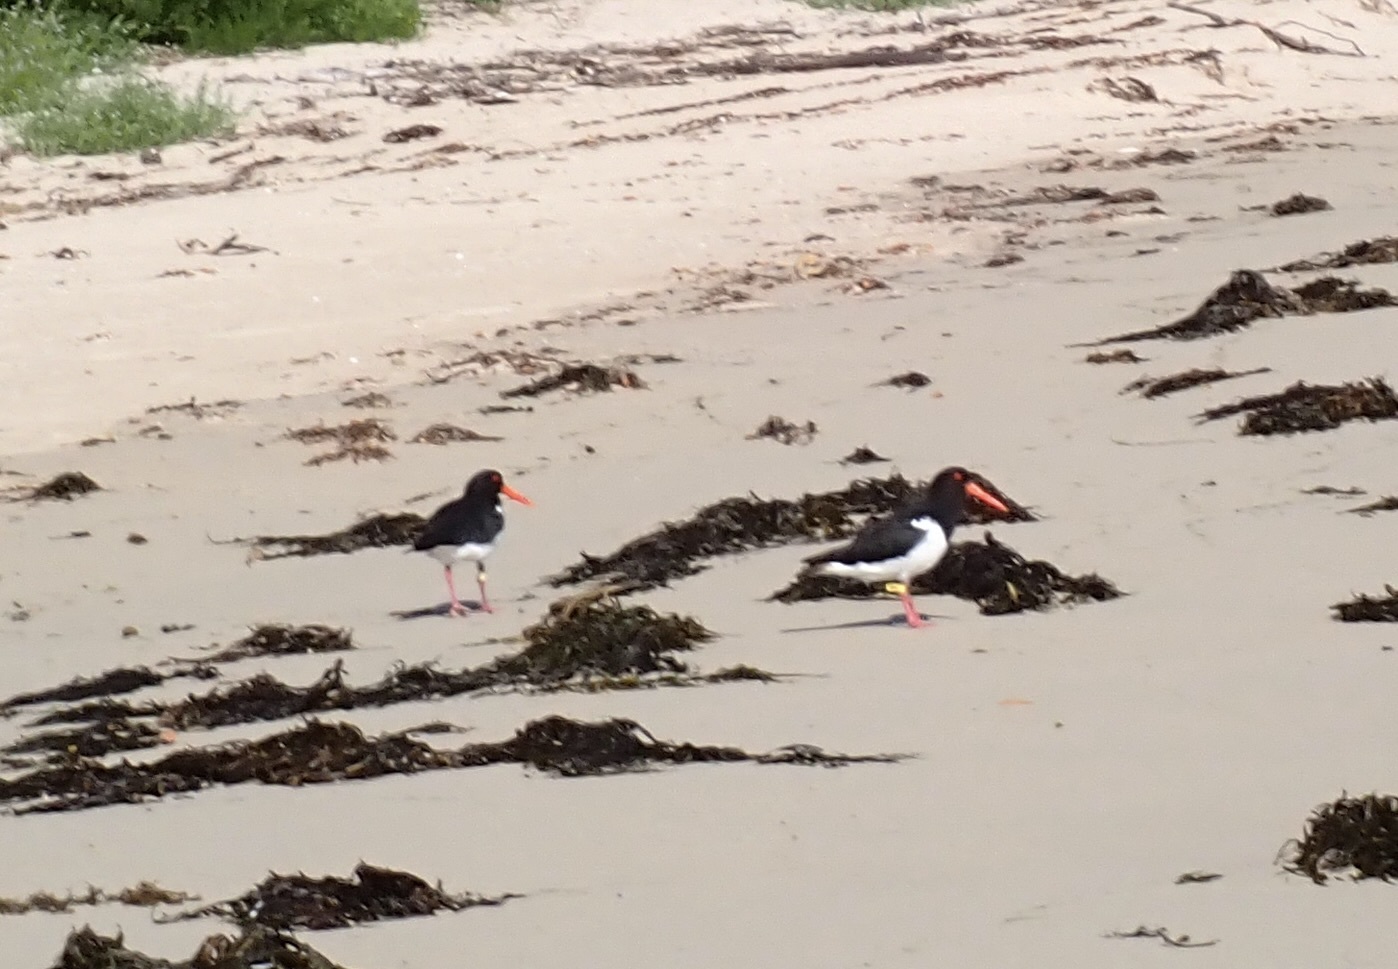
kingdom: Animalia
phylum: Chordata
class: Aves
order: Charadriiformes
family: Haematopodidae
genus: Haematopus
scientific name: Haematopus longirostris
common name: Pied oystercatcher
